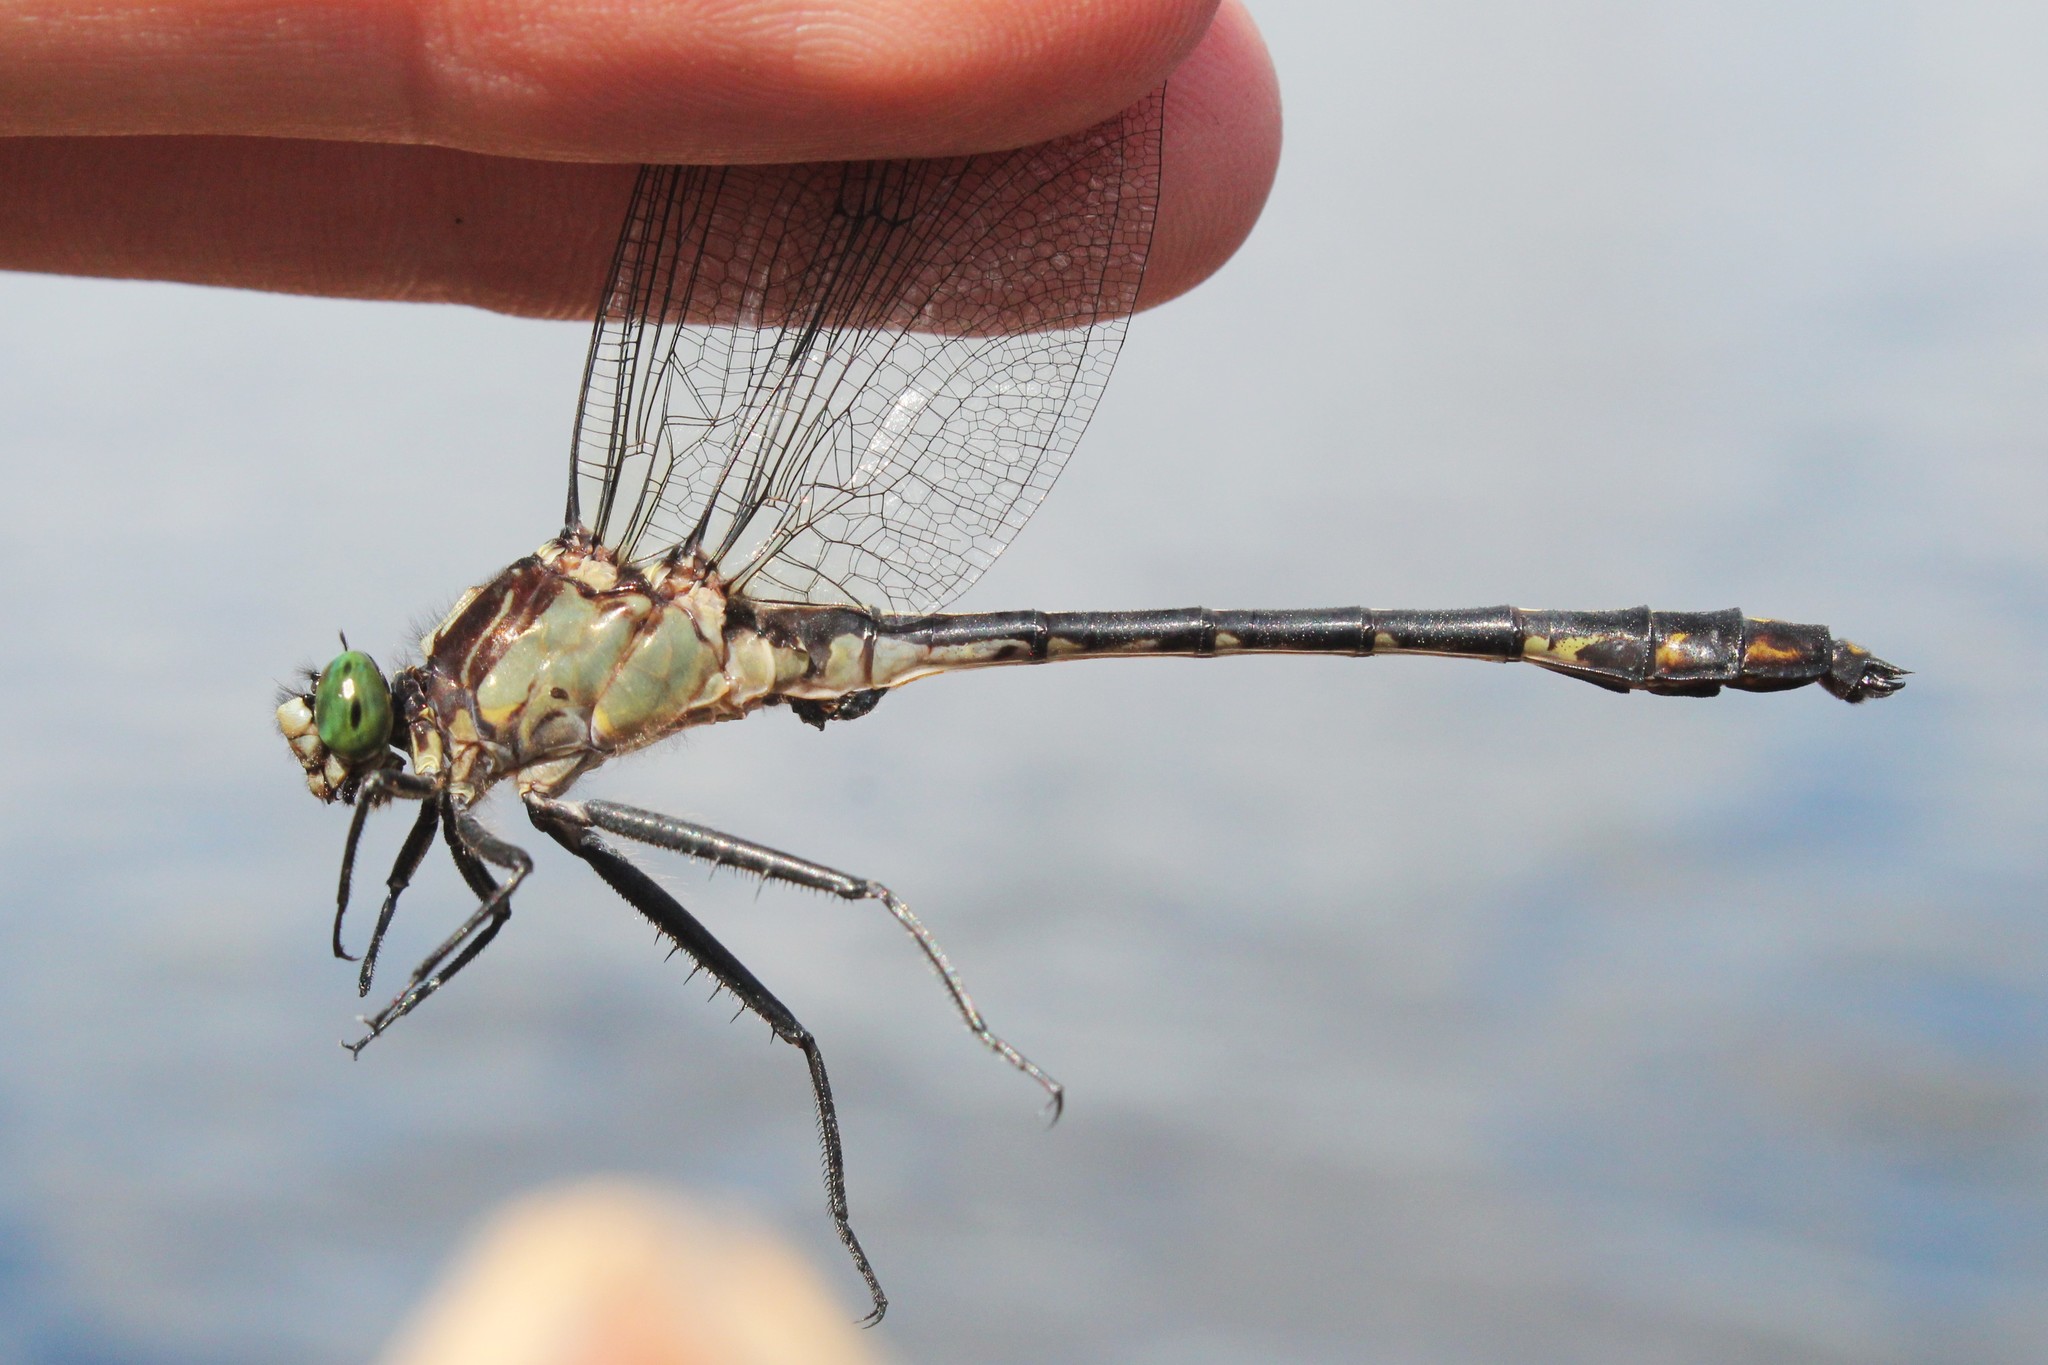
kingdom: Animalia
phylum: Arthropoda
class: Insecta
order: Odonata
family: Gomphidae
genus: Dromogomphus
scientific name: Dromogomphus spinosus
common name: Black-shouldered spinyleg
